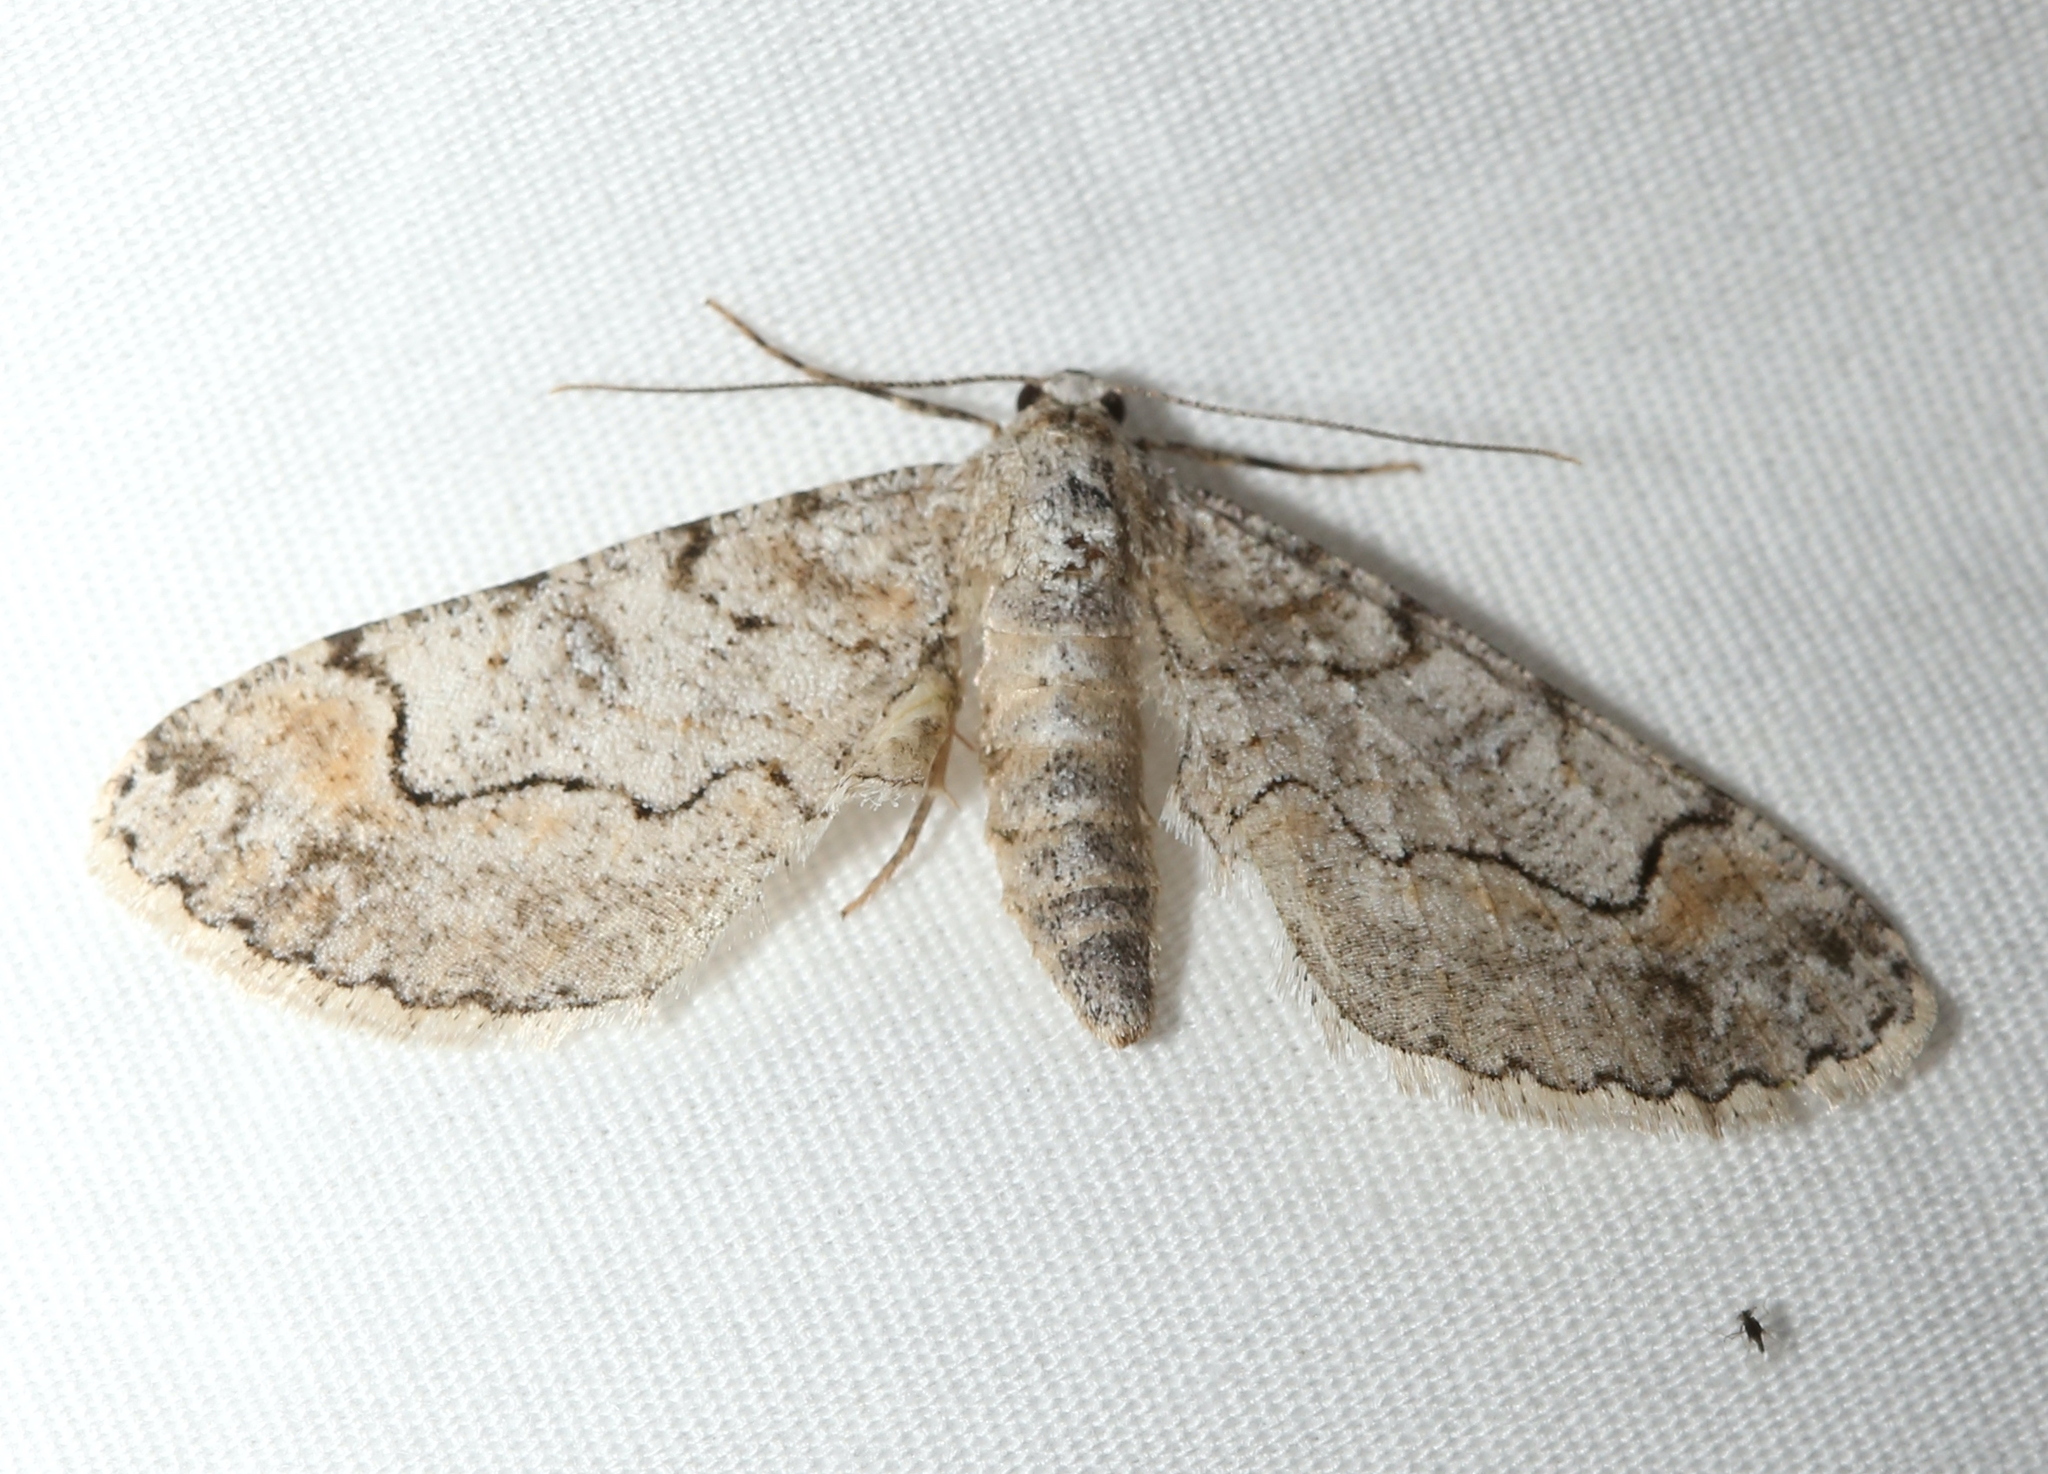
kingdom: Animalia
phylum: Arthropoda
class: Insecta
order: Lepidoptera
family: Geometridae
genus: Iridopsis
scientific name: Iridopsis larvaria
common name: Bent-line gray
